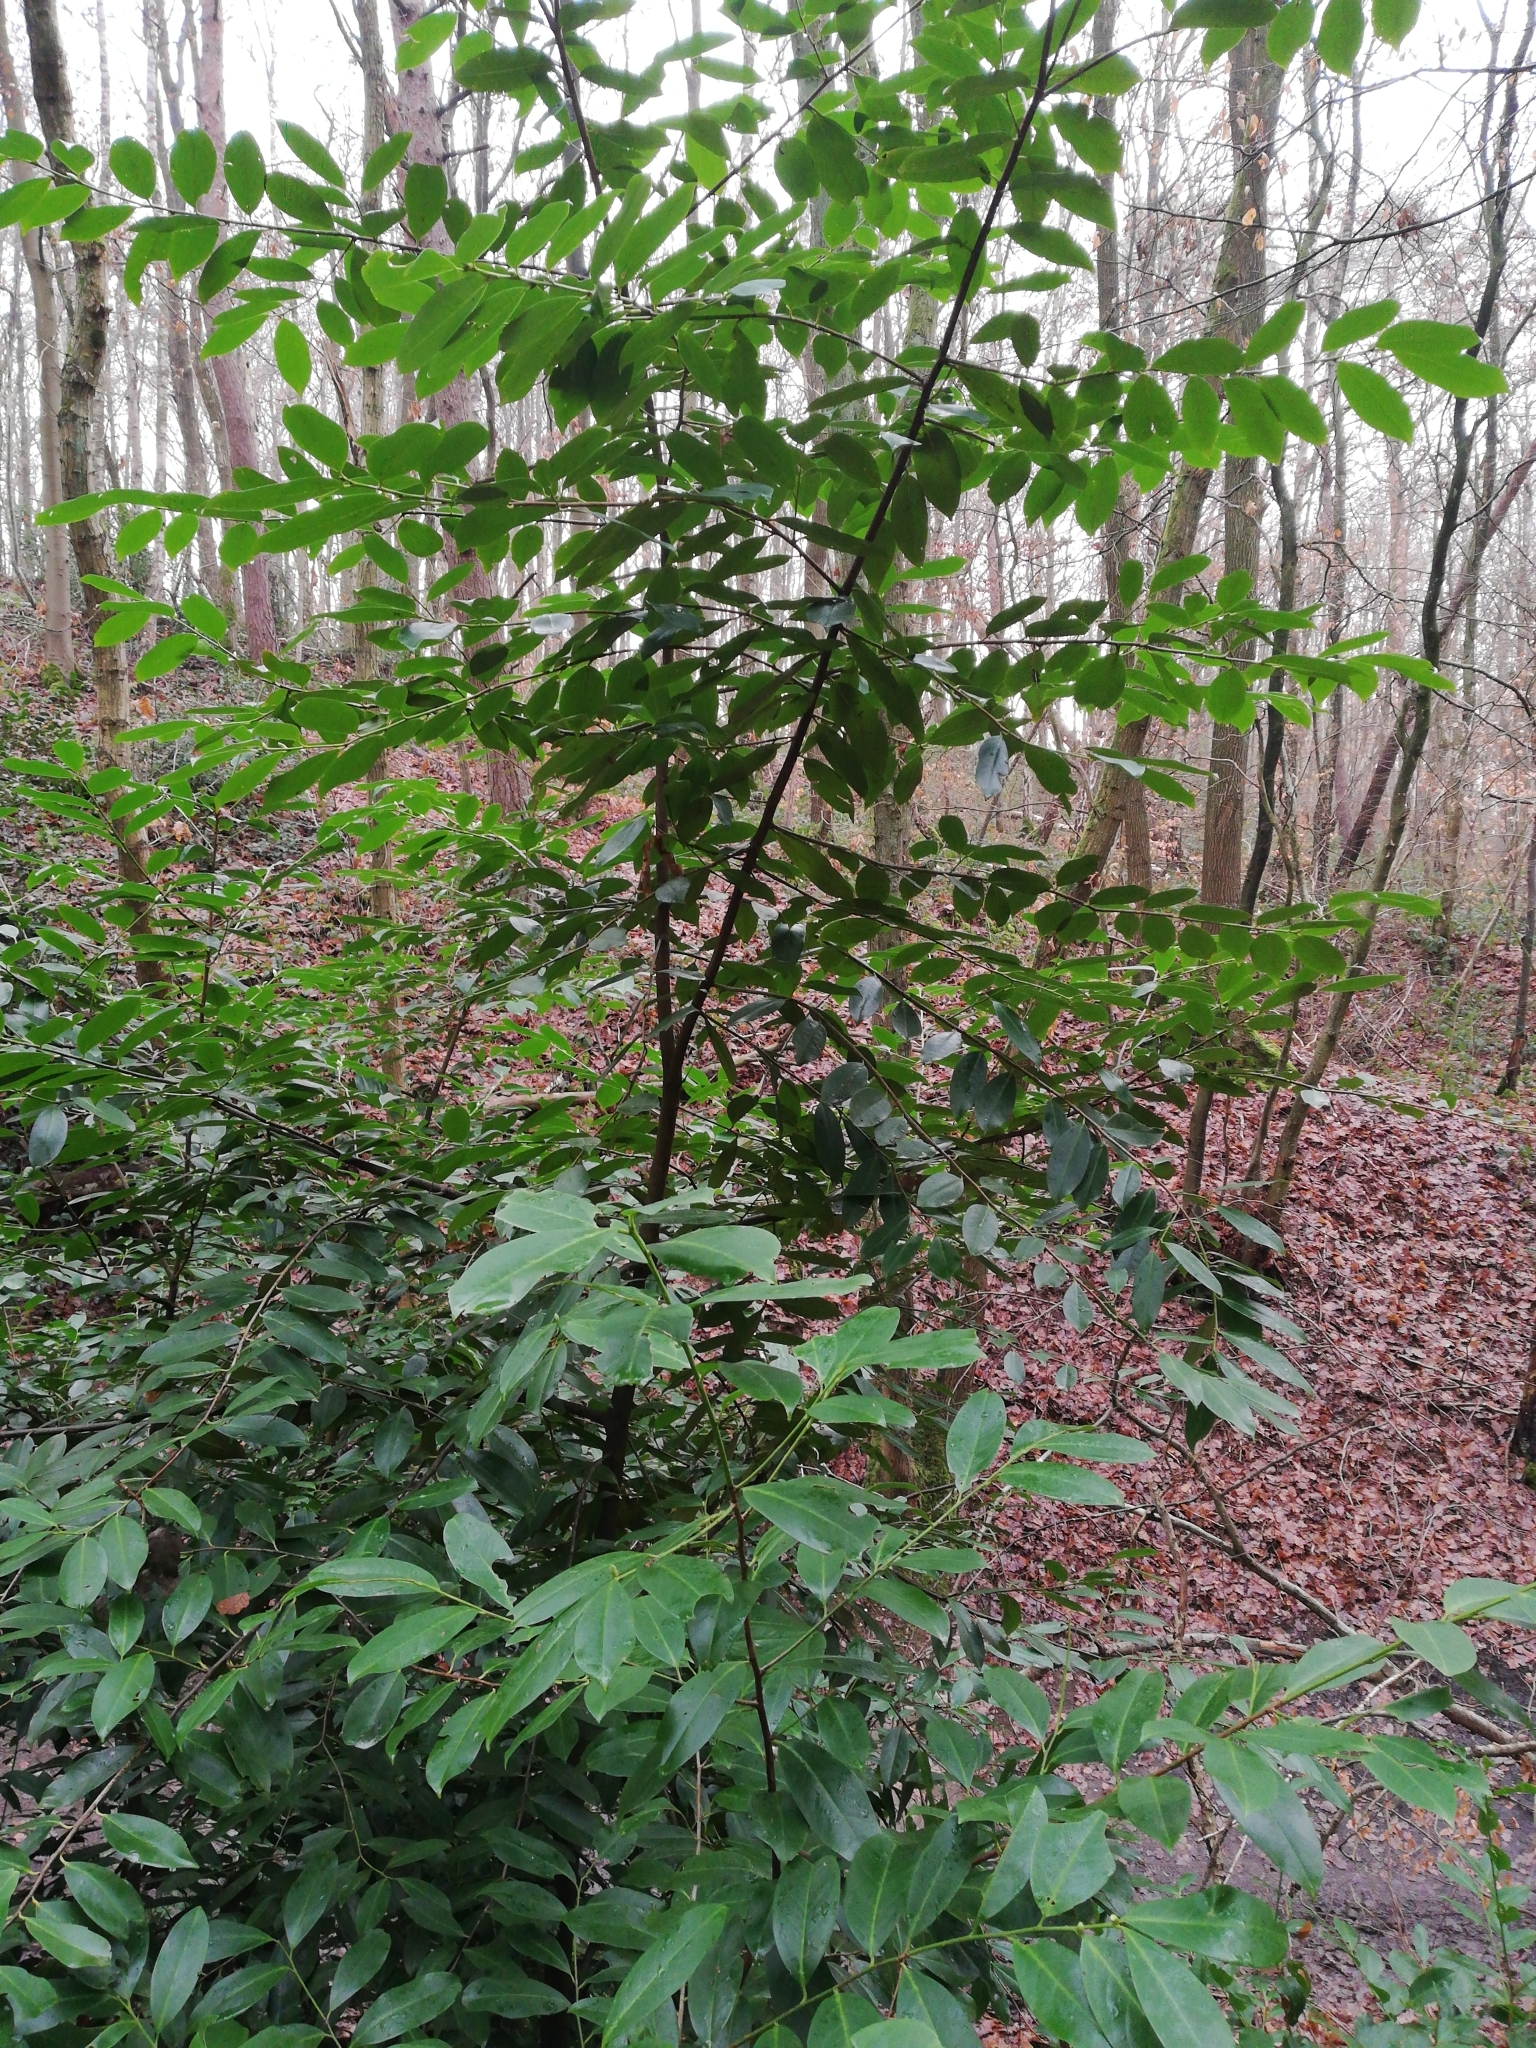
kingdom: Plantae
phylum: Tracheophyta
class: Magnoliopsida
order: Rosales
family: Rosaceae
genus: Prunus
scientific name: Prunus laurocerasus
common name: Cherry laurel
